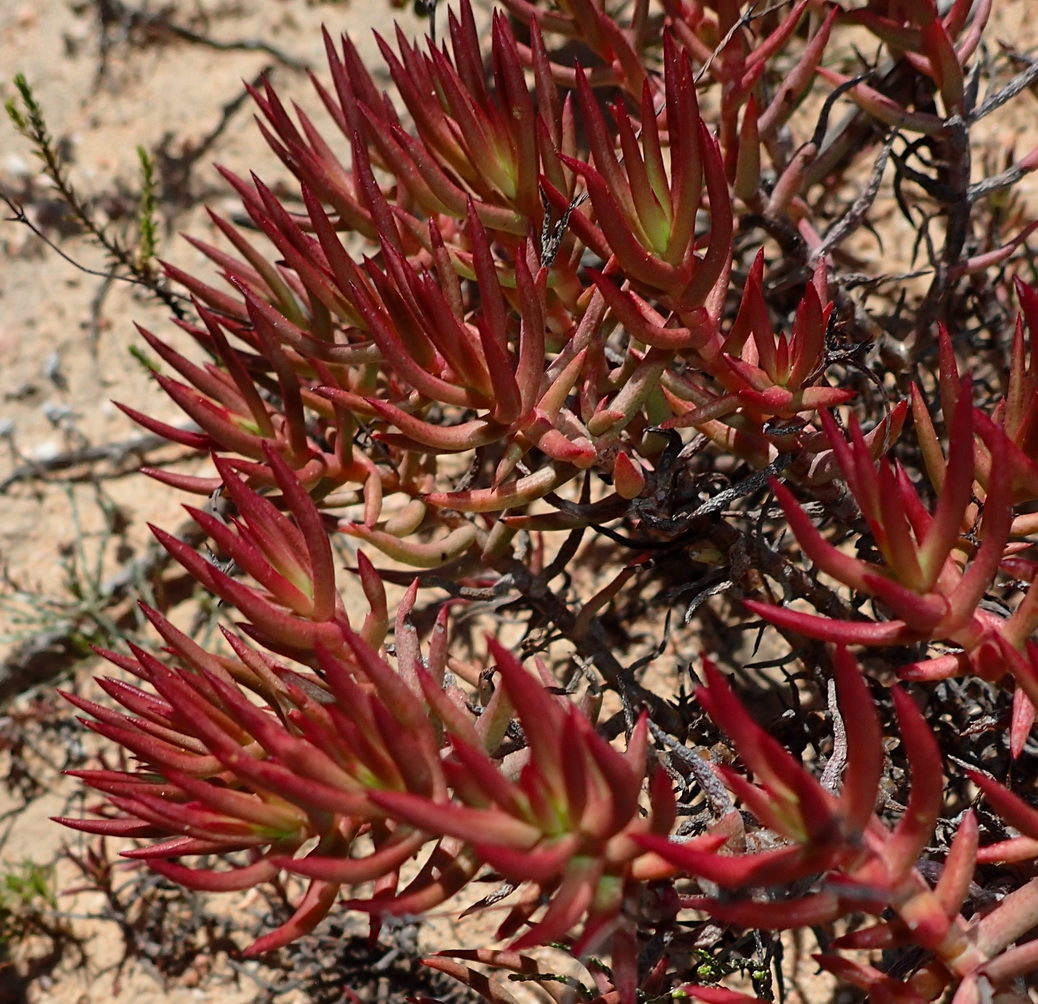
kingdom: Plantae
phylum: Tracheophyta
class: Magnoliopsida
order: Saxifragales
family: Crassulaceae
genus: Crassula
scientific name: Crassula tetragona
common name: Pygmyweed
